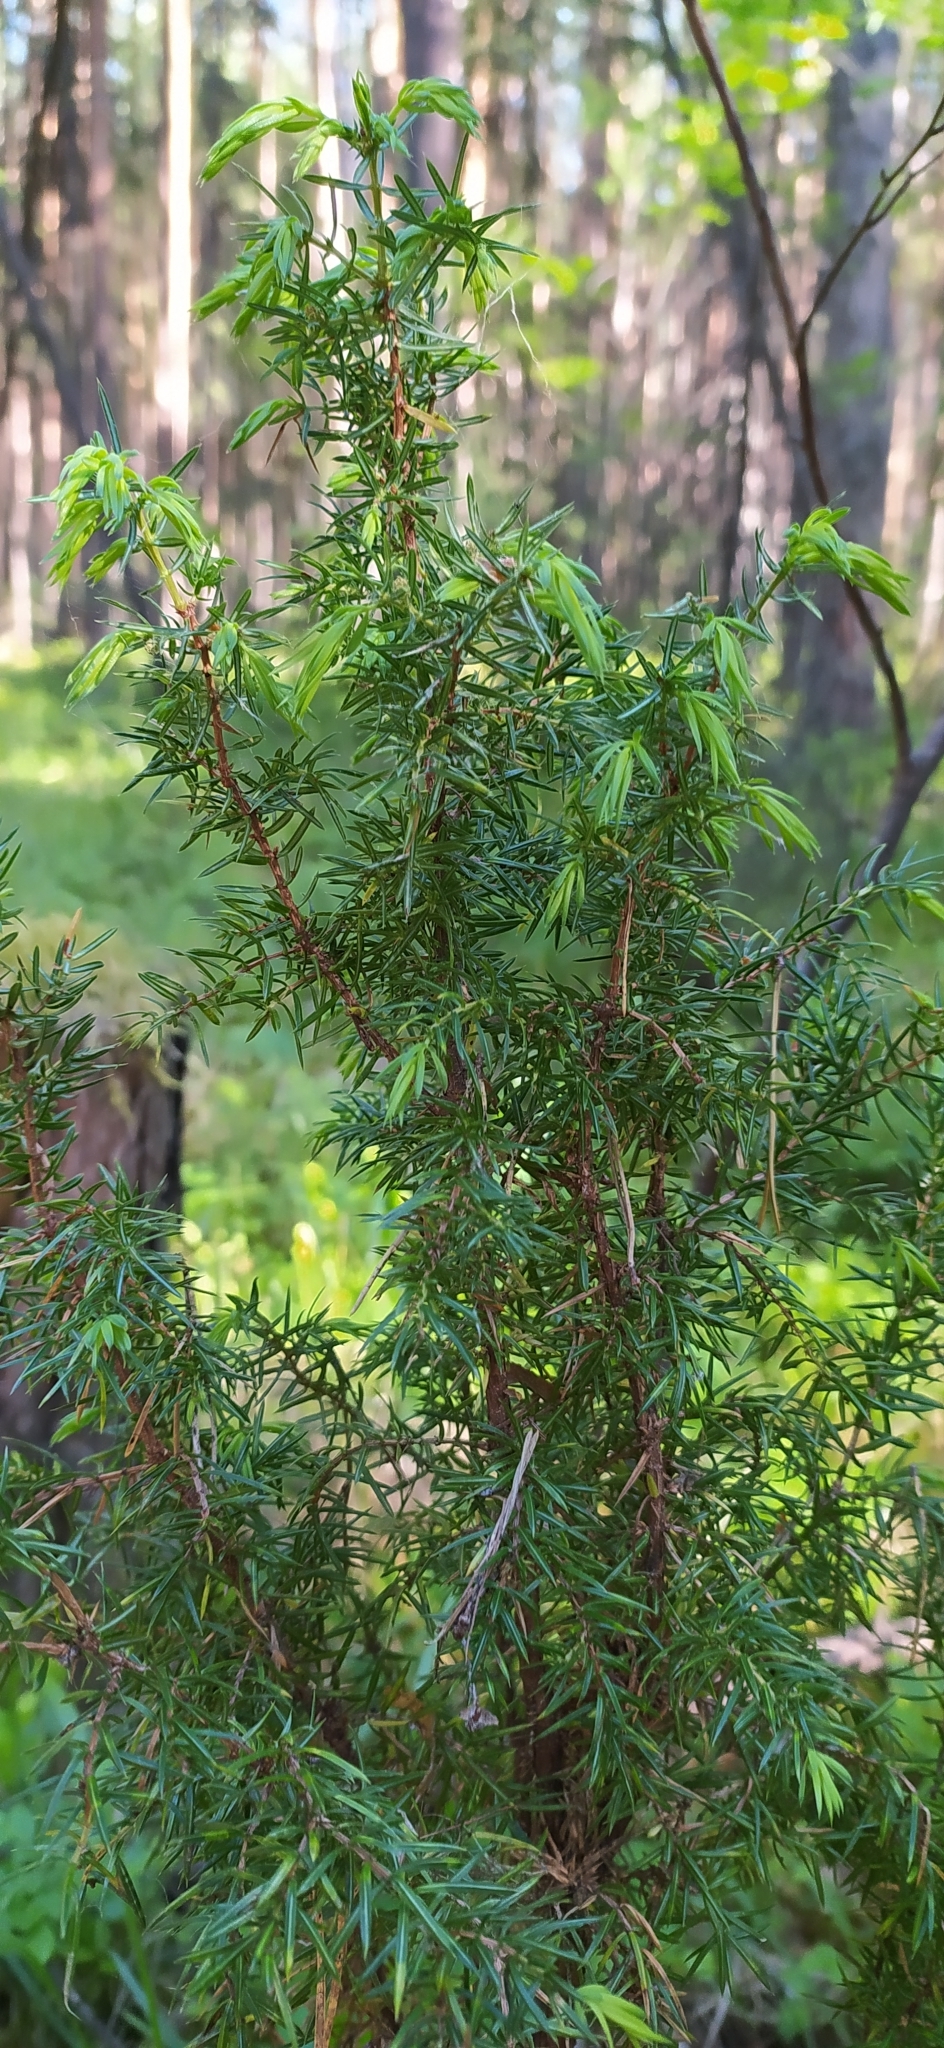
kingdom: Plantae
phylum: Tracheophyta
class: Pinopsida
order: Pinales
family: Cupressaceae
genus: Juniperus
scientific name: Juniperus communis
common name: Common juniper
